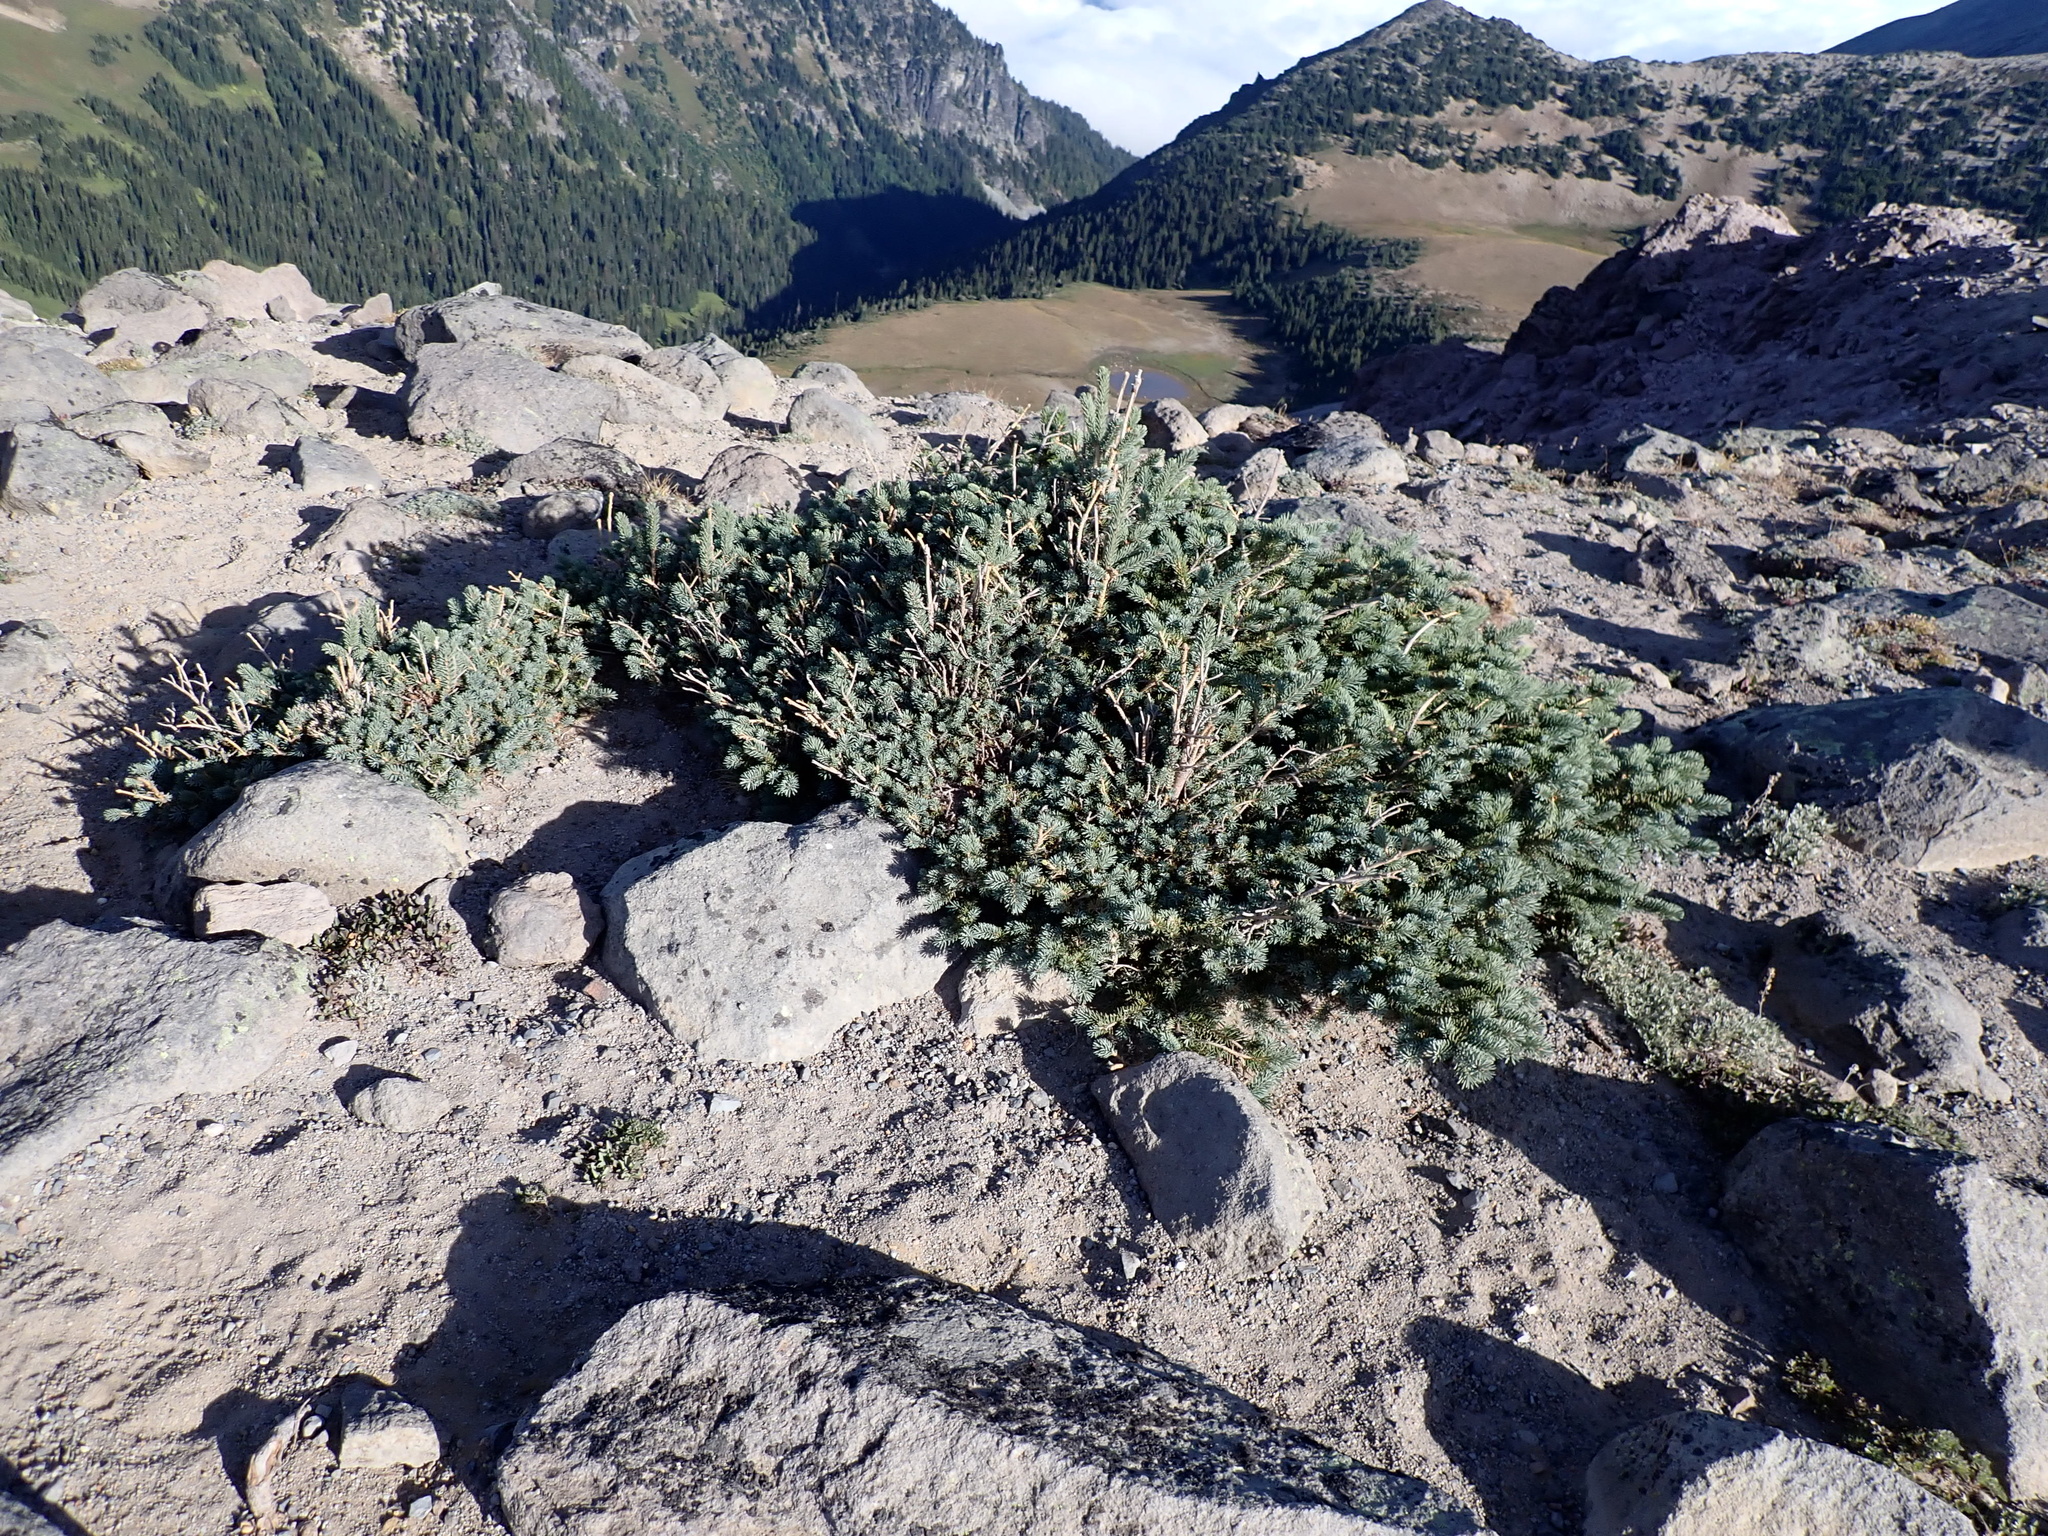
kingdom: Plantae
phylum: Tracheophyta
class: Pinopsida
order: Pinales
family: Pinaceae
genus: Picea
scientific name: Picea engelmannii
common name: Engelmann spruce
